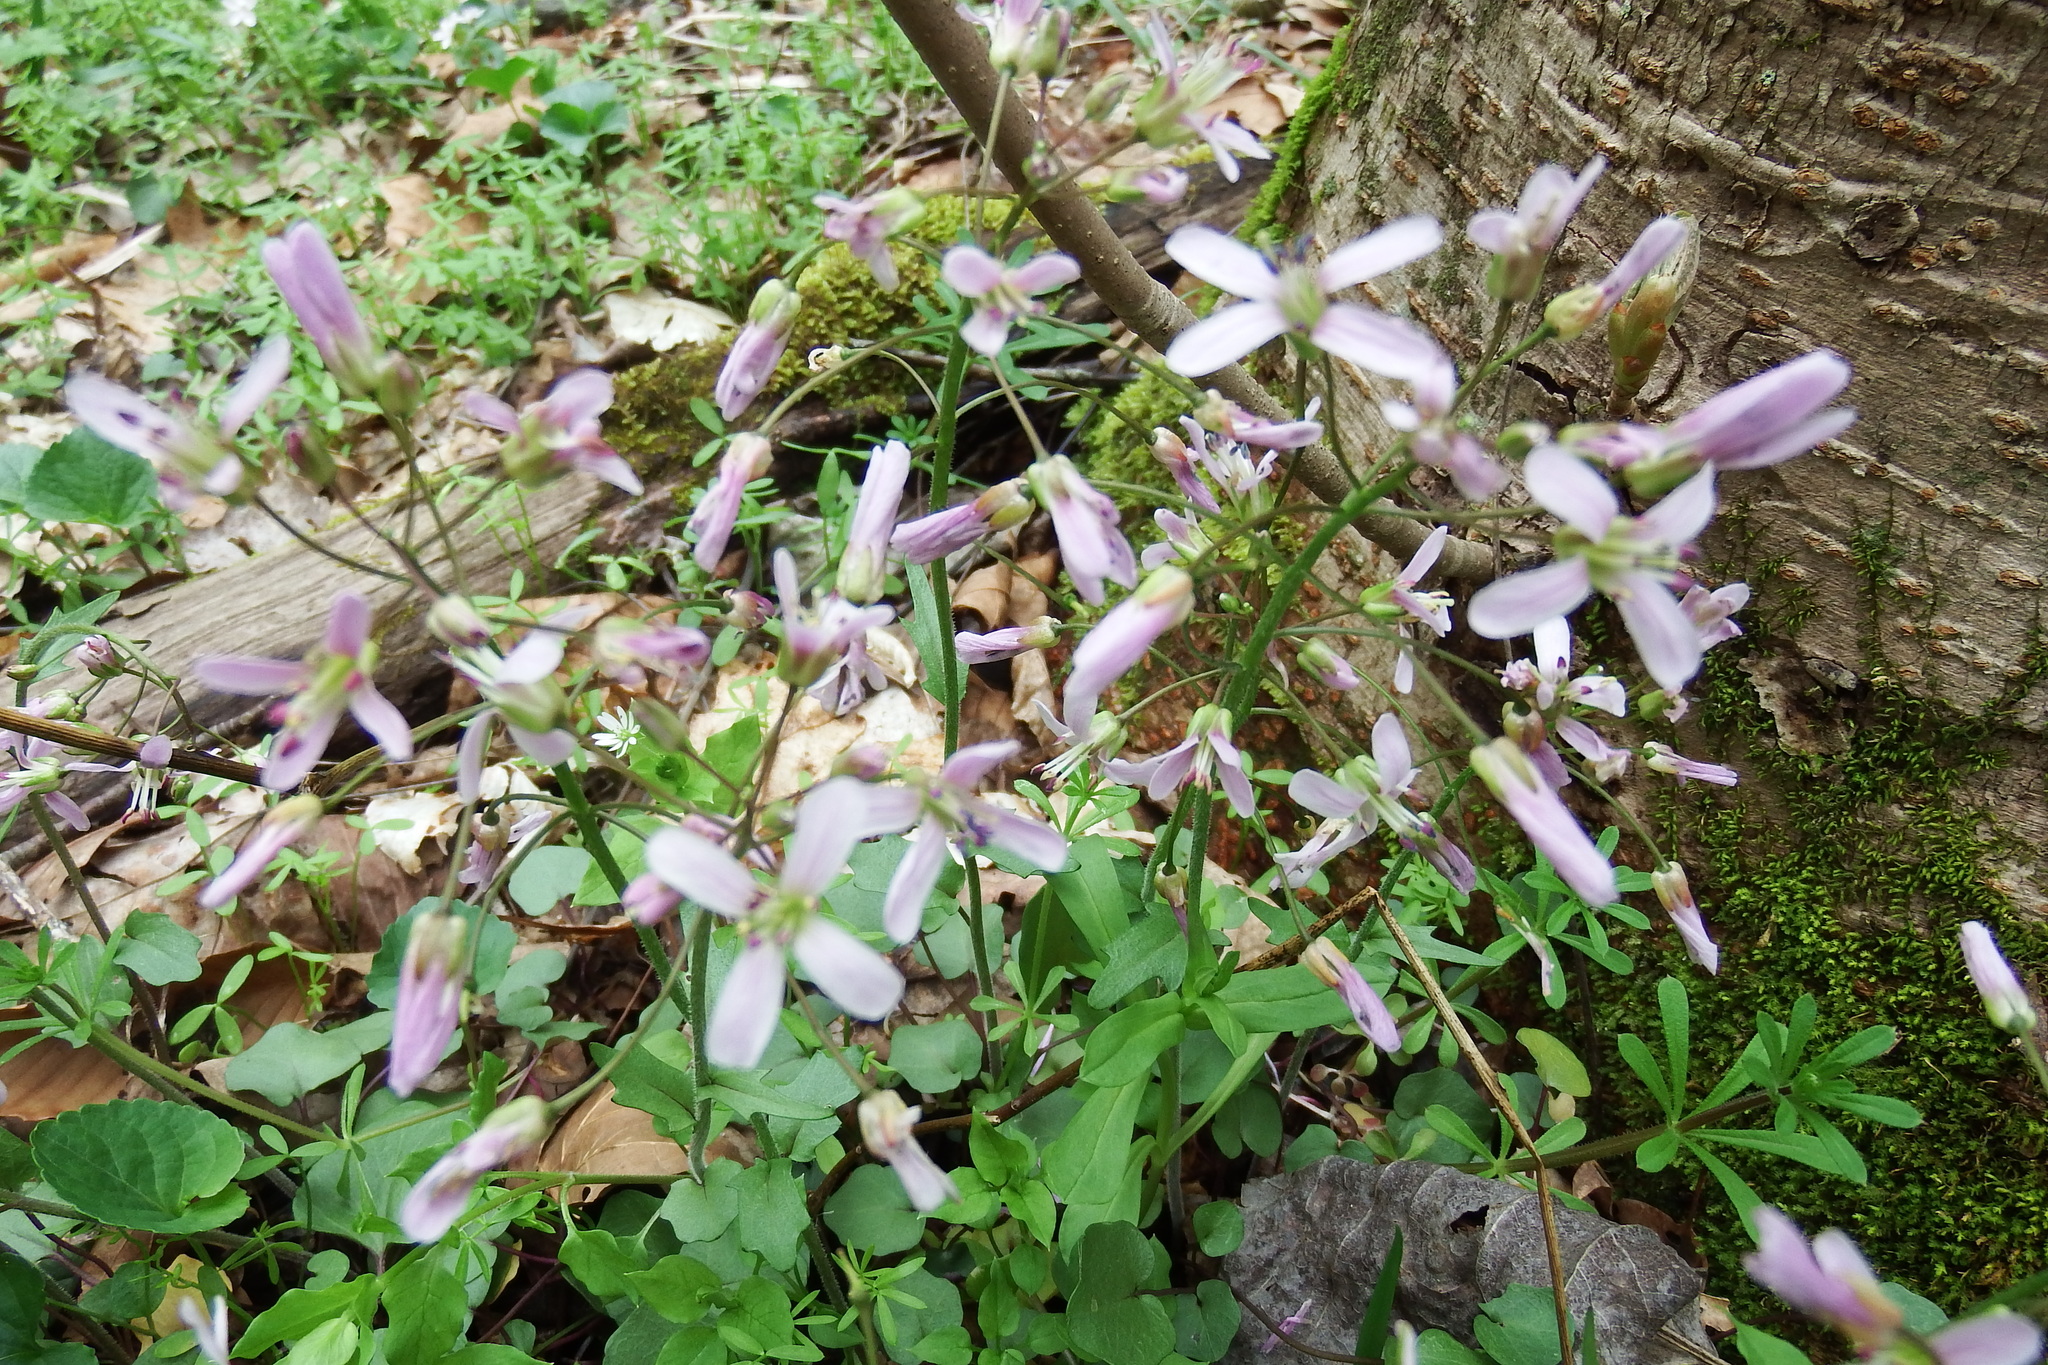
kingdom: Plantae
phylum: Tracheophyta
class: Magnoliopsida
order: Brassicales
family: Brassicaceae
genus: Cardamine
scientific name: Cardamine douglassii
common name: Purple cress
